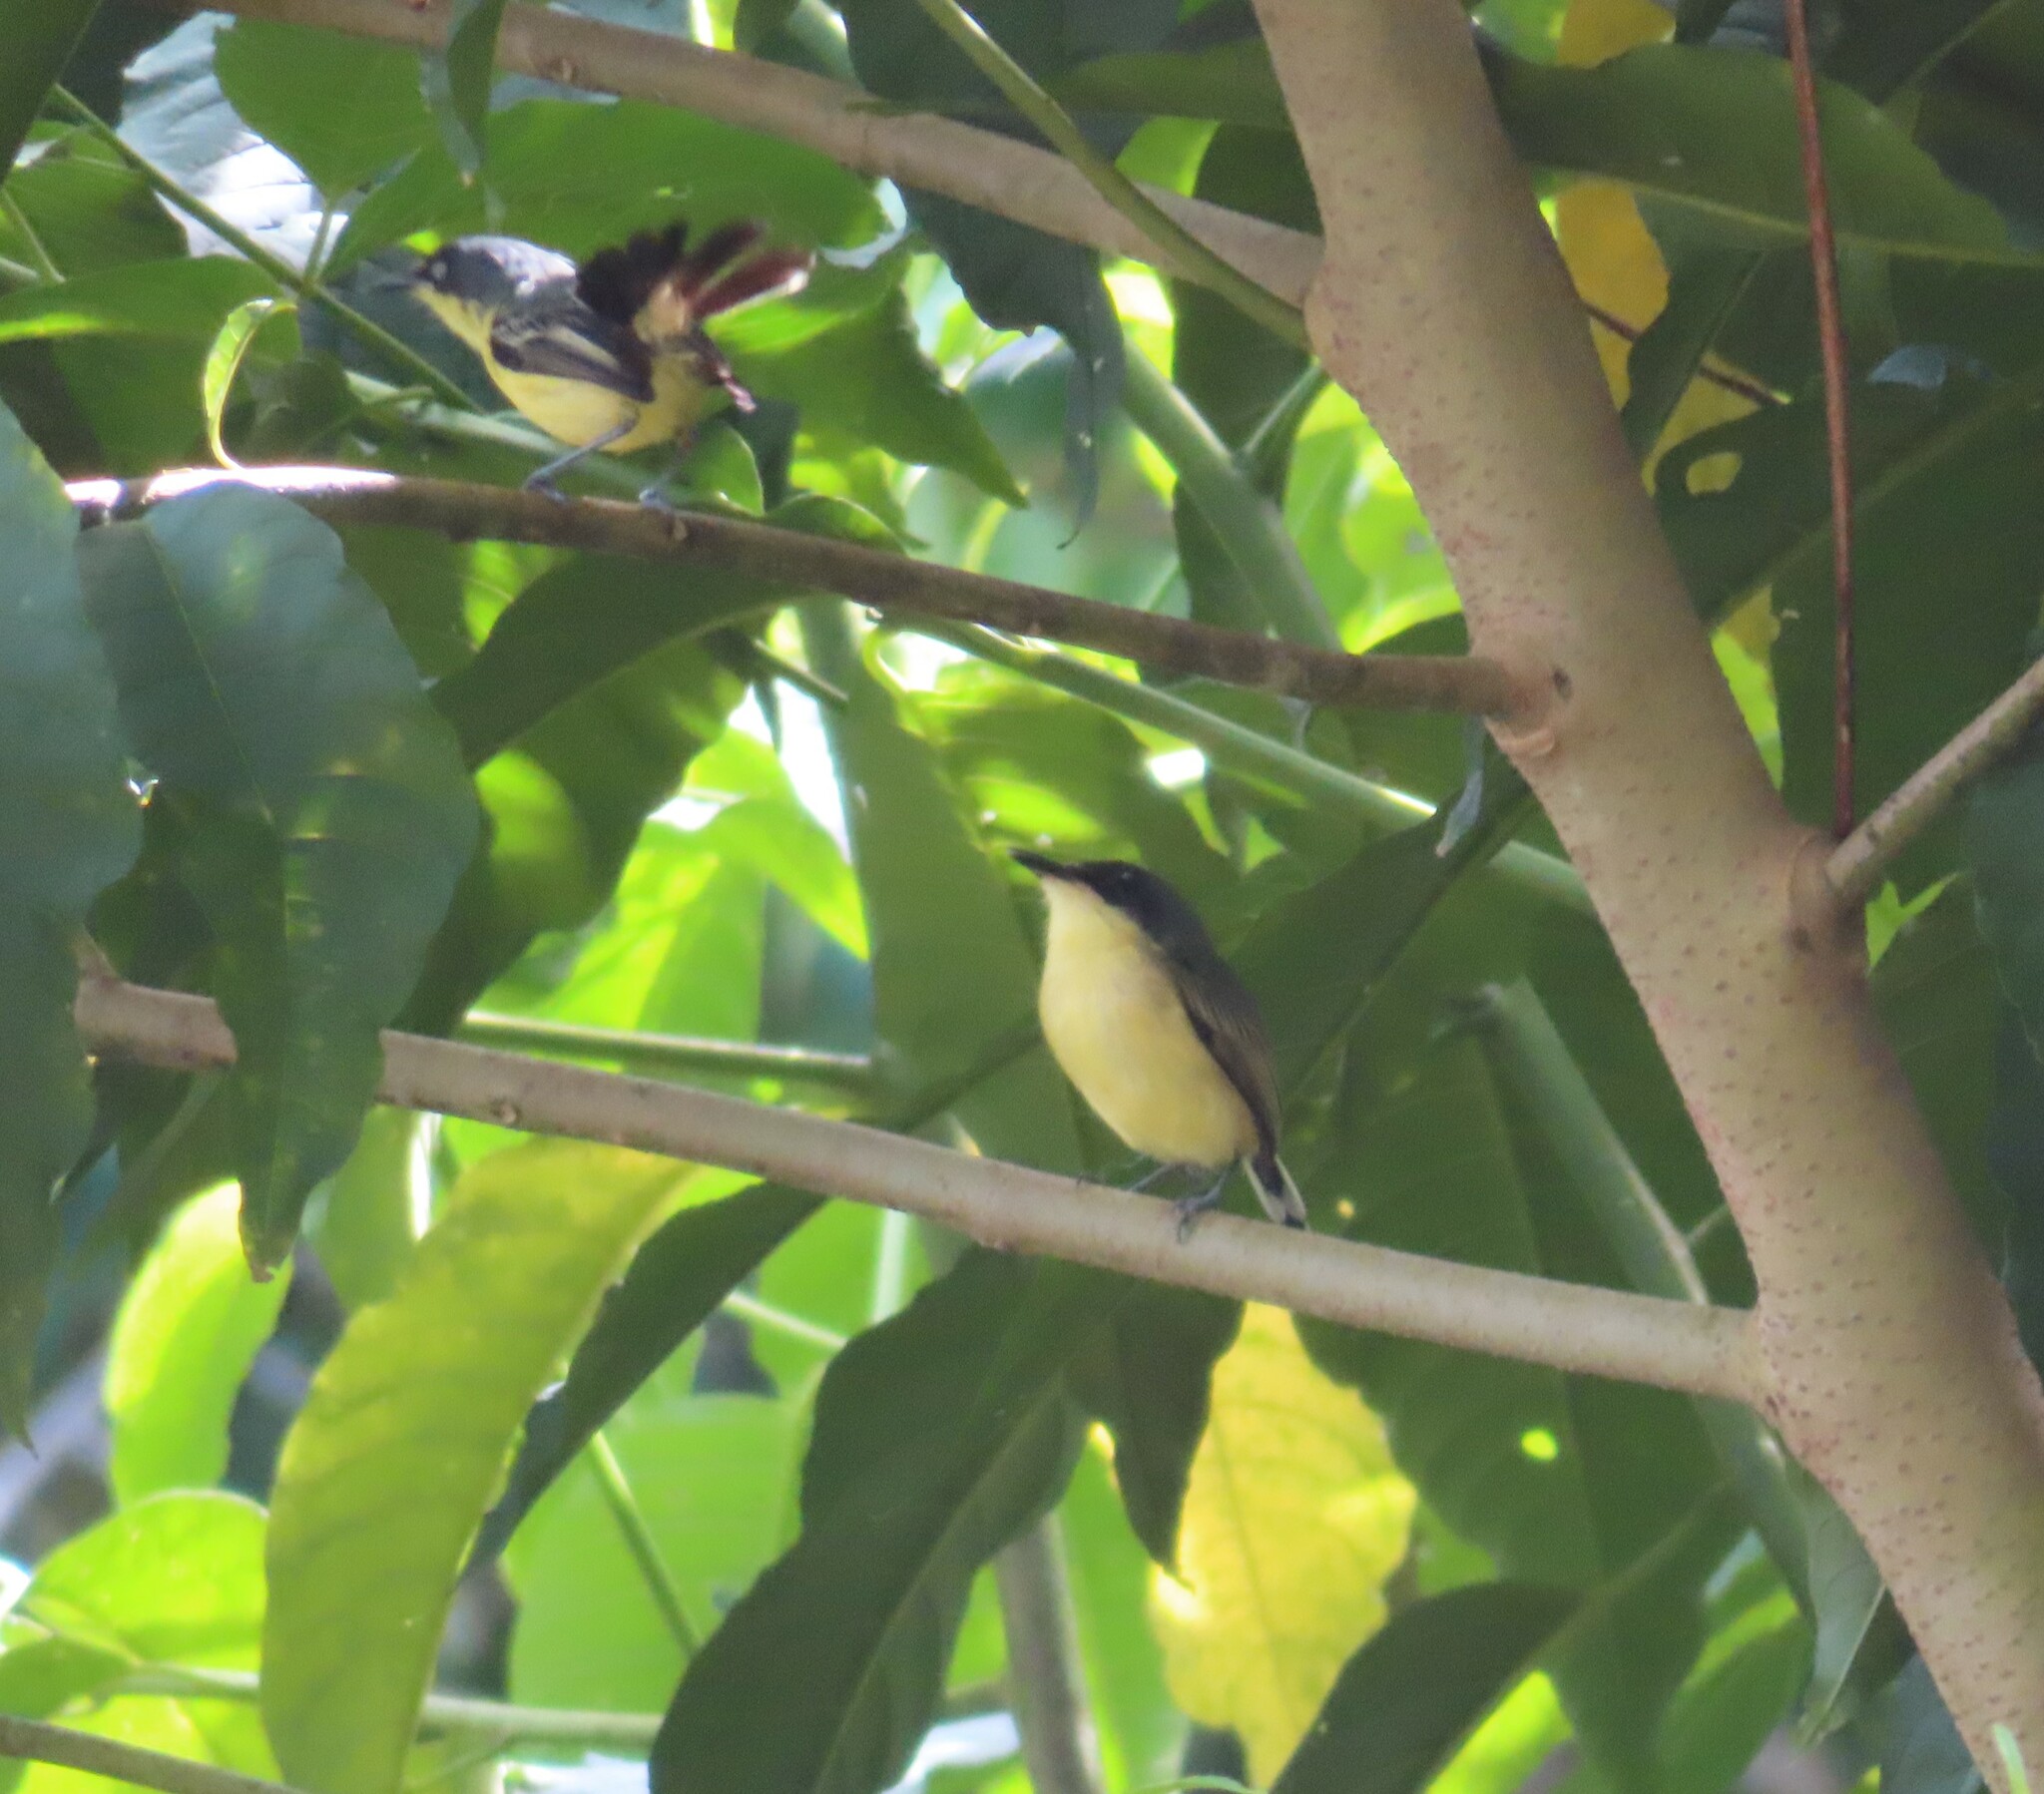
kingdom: Animalia
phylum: Chordata
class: Aves
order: Passeriformes
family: Tyrannidae
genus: Todirostrum
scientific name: Todirostrum cinereum
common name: Common tody-flycatcher
